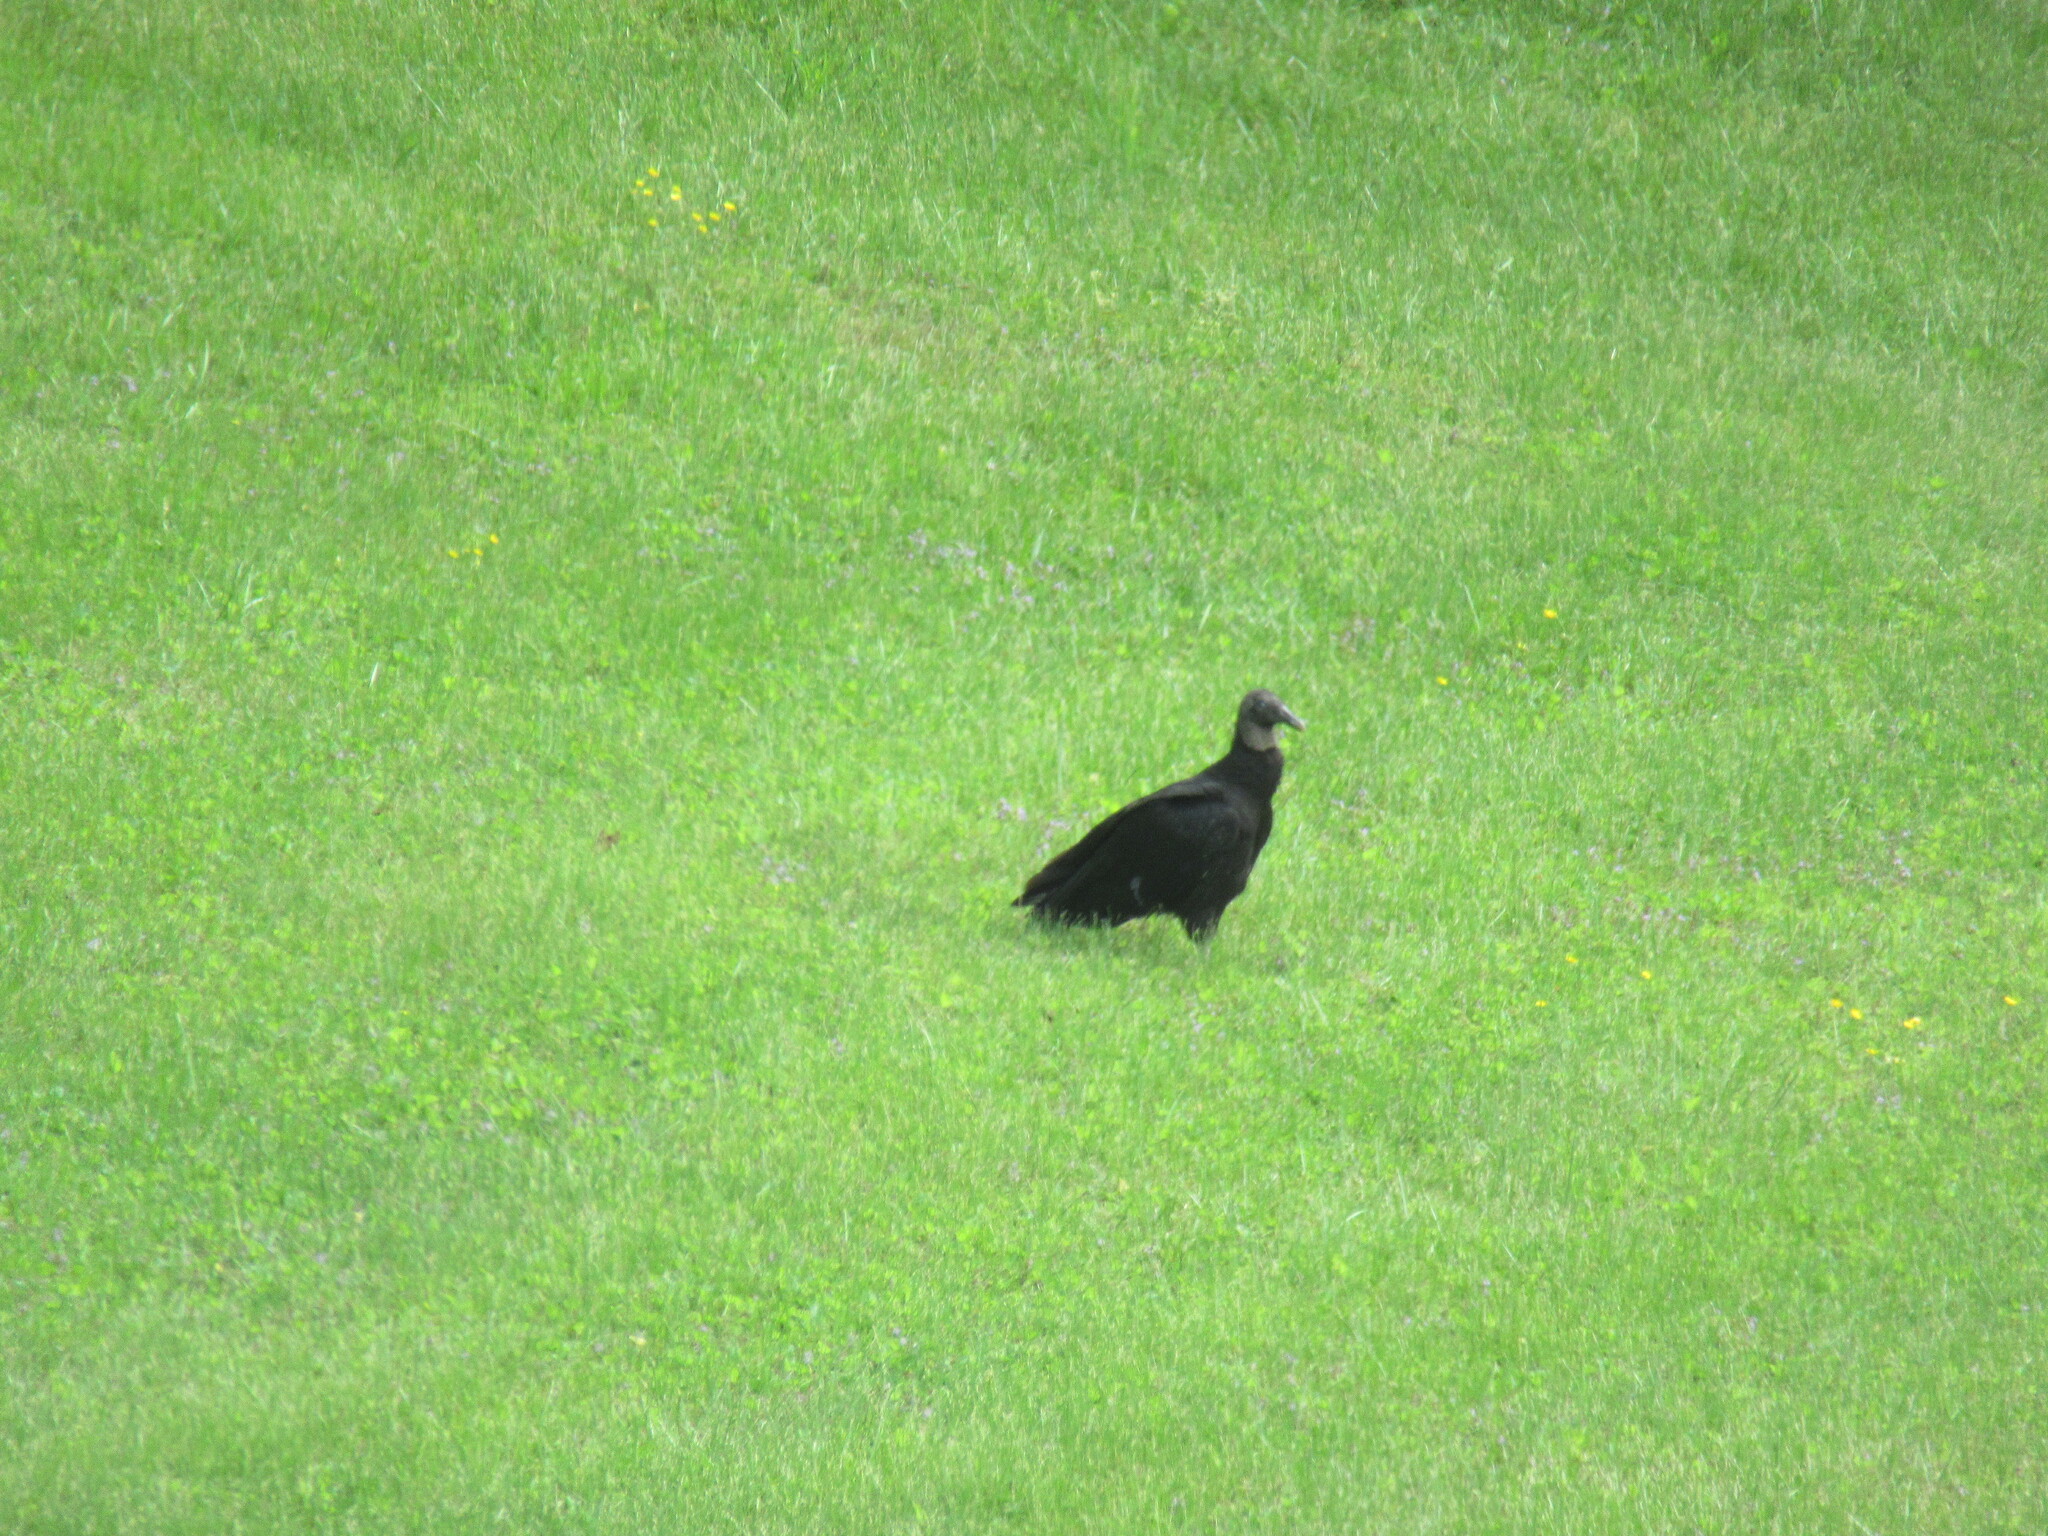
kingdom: Animalia
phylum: Chordata
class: Aves
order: Accipitriformes
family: Cathartidae
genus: Coragyps
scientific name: Coragyps atratus
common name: Black vulture
